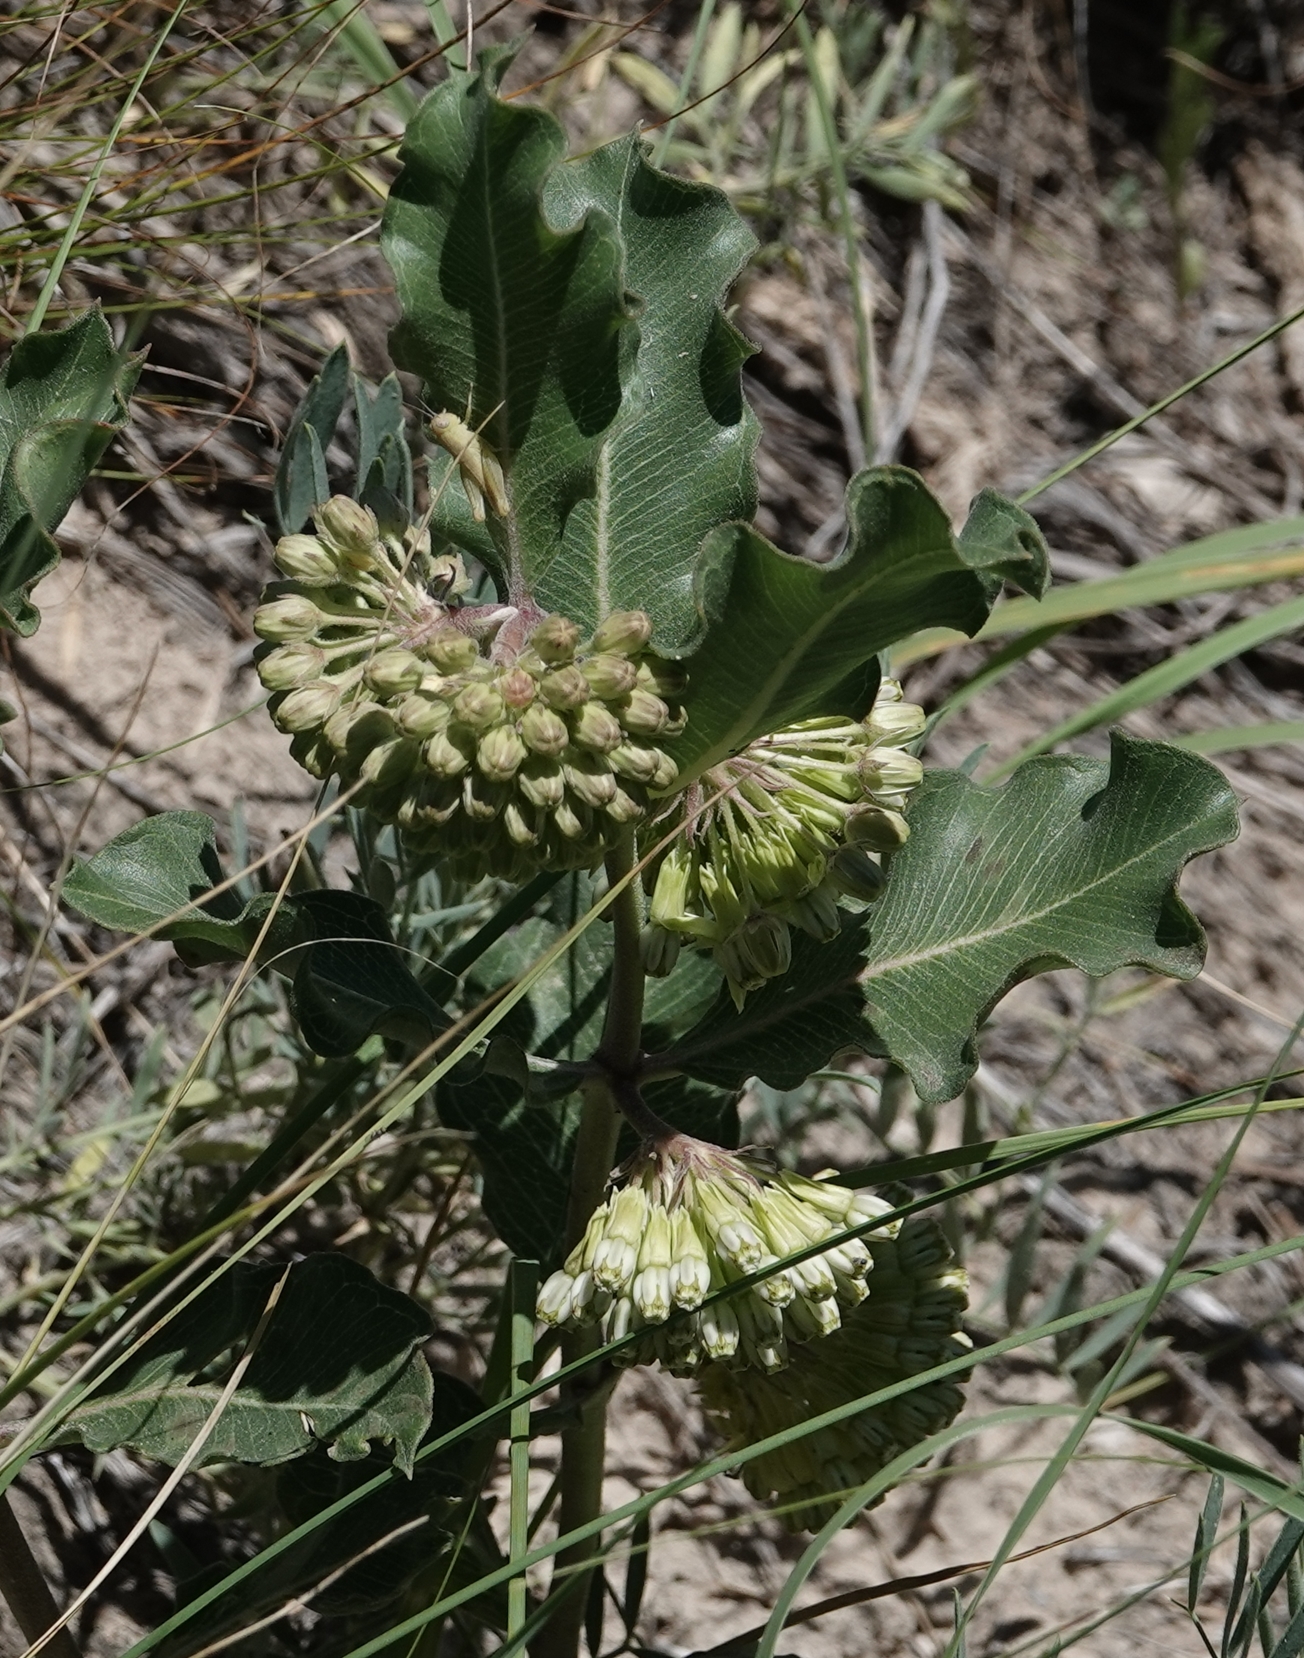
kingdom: Plantae
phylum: Tracheophyta
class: Magnoliopsida
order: Gentianales
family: Apocynaceae
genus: Asclepias
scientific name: Asclepias viridiflora
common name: Green comet milkweed
